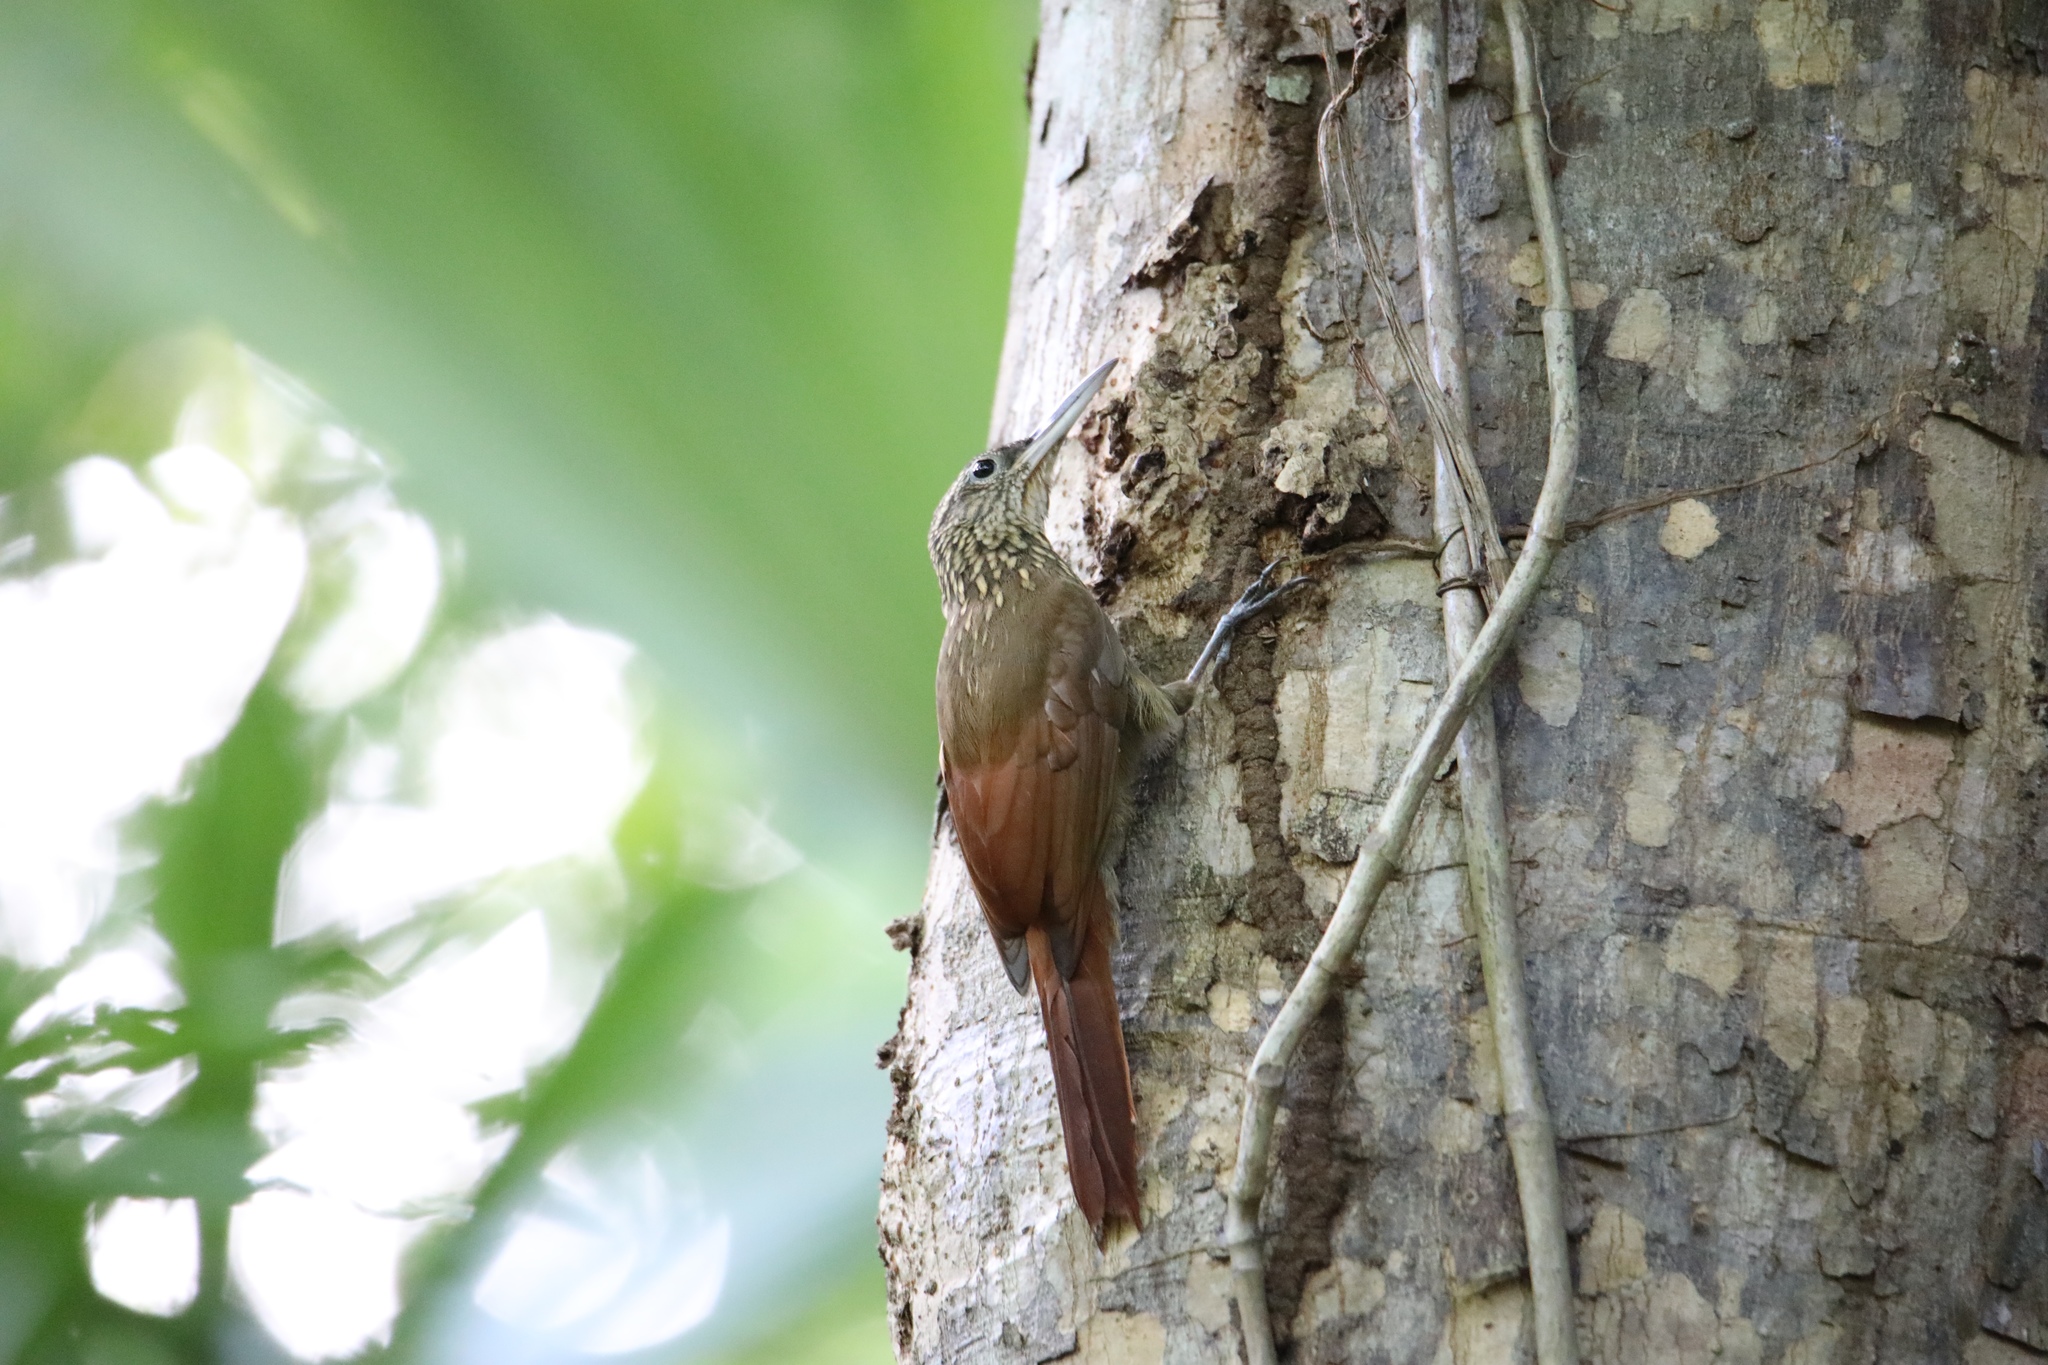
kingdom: Animalia
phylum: Chordata
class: Aves
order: Passeriformes
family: Furnariidae
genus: Xiphorhynchus
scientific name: Xiphorhynchus susurrans
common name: Cocoa woodcreeper
